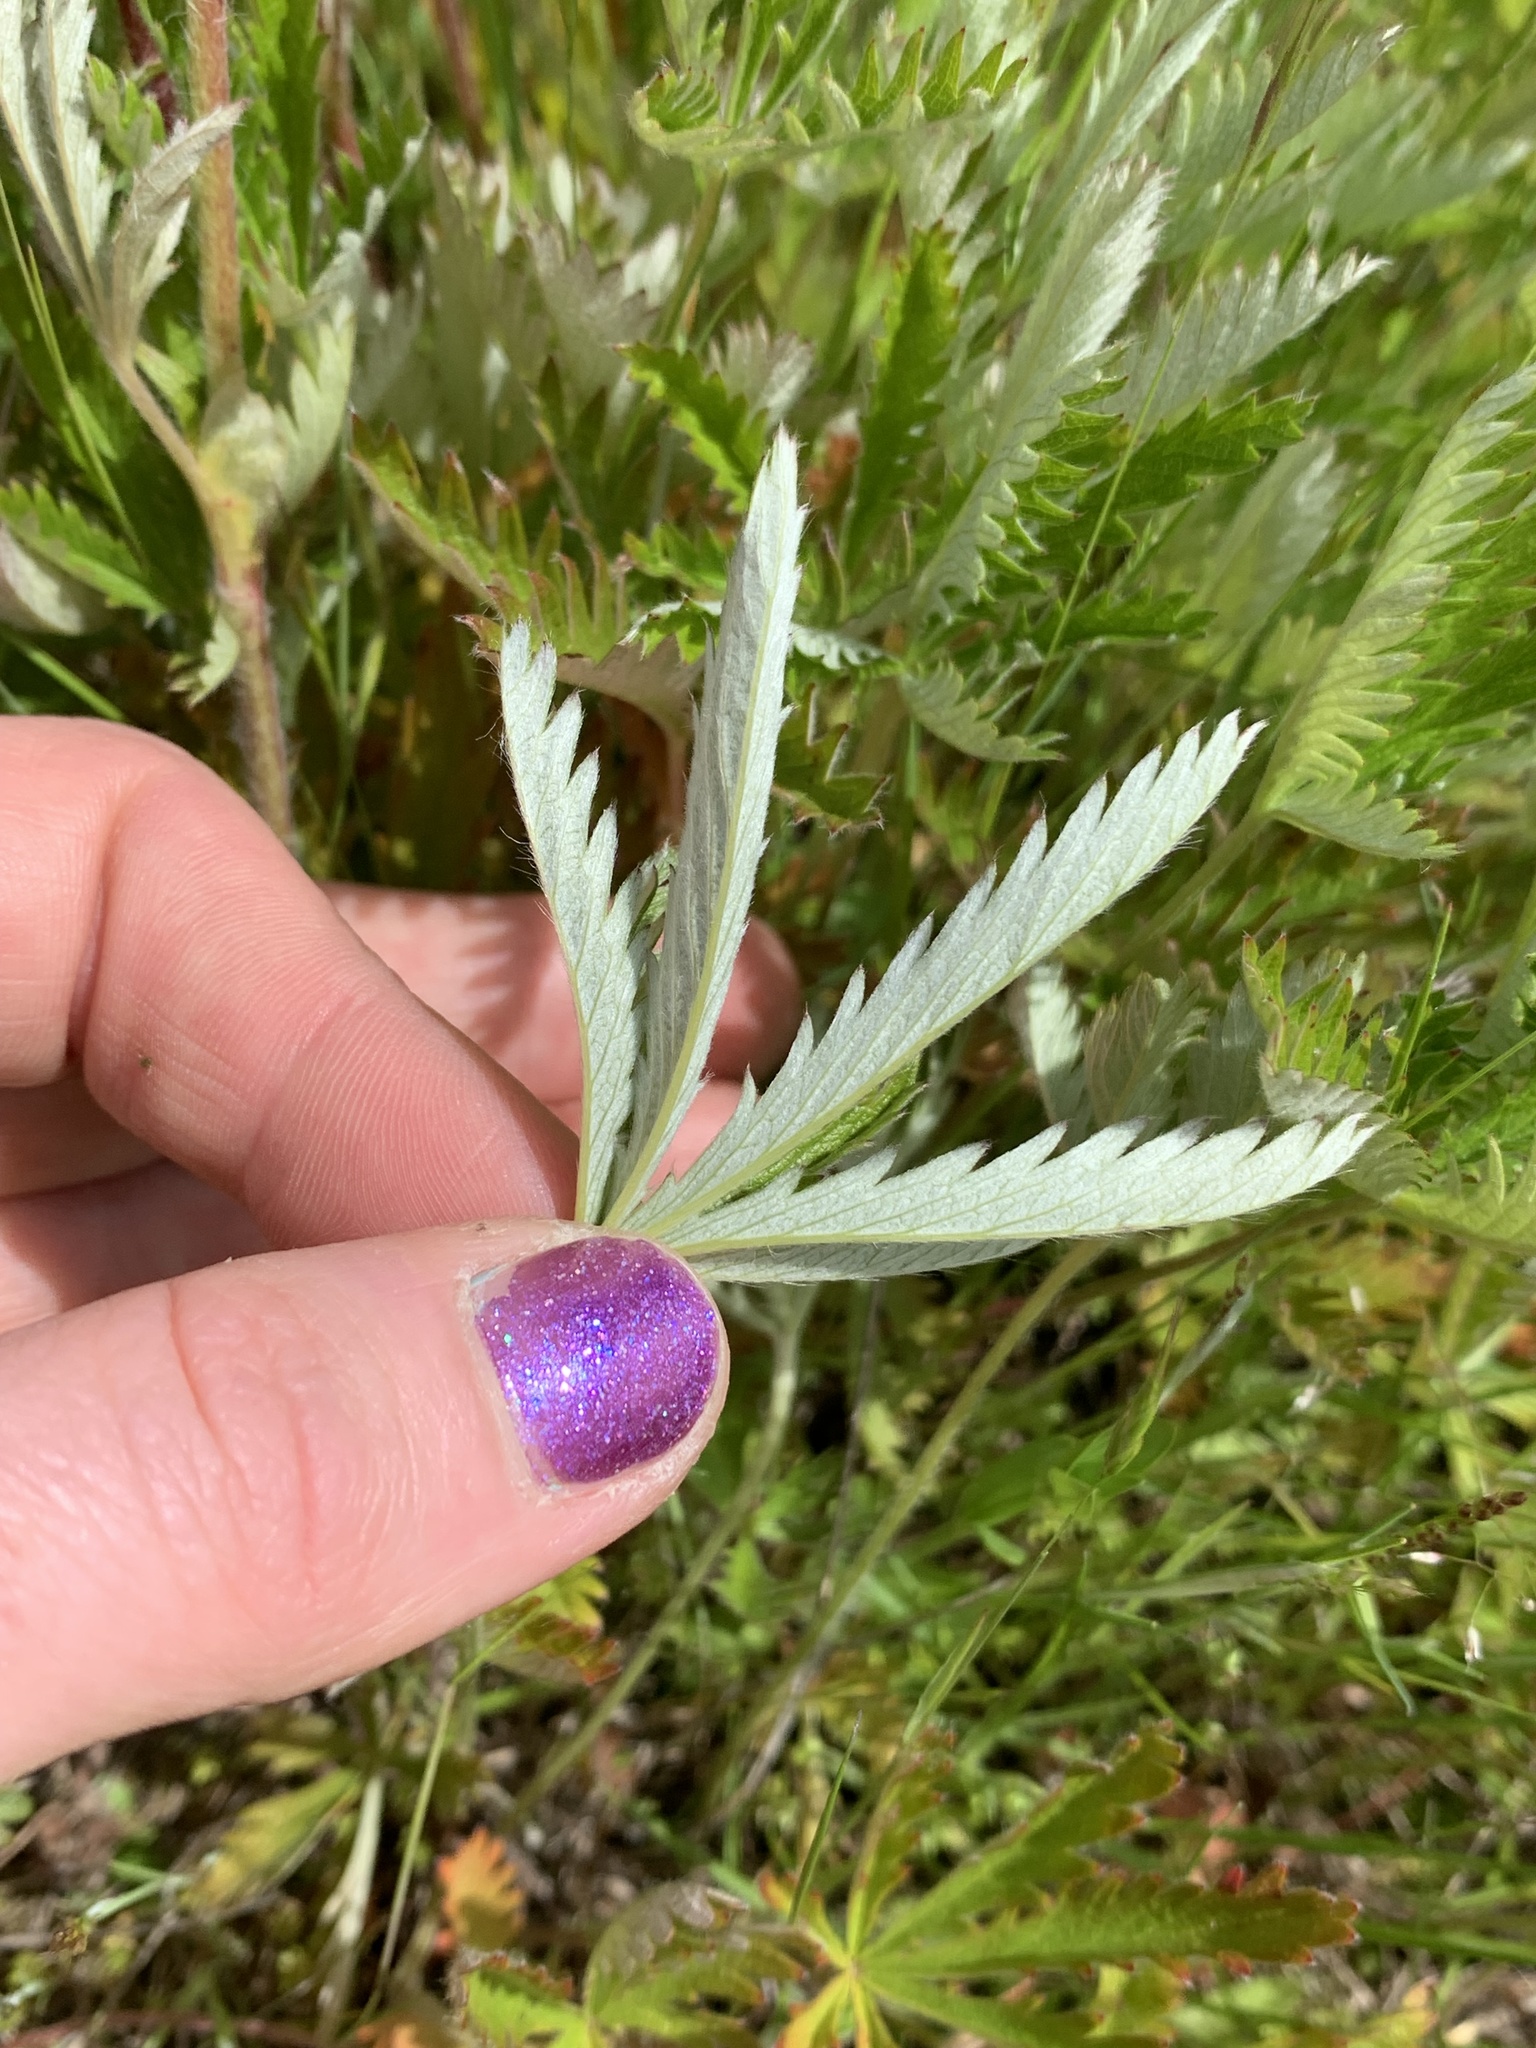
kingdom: Plantae
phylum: Tracheophyta
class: Magnoliopsida
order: Rosales
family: Rosaceae
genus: Potentilla
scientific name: Potentilla gracilis
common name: Graceful cinquefoil
